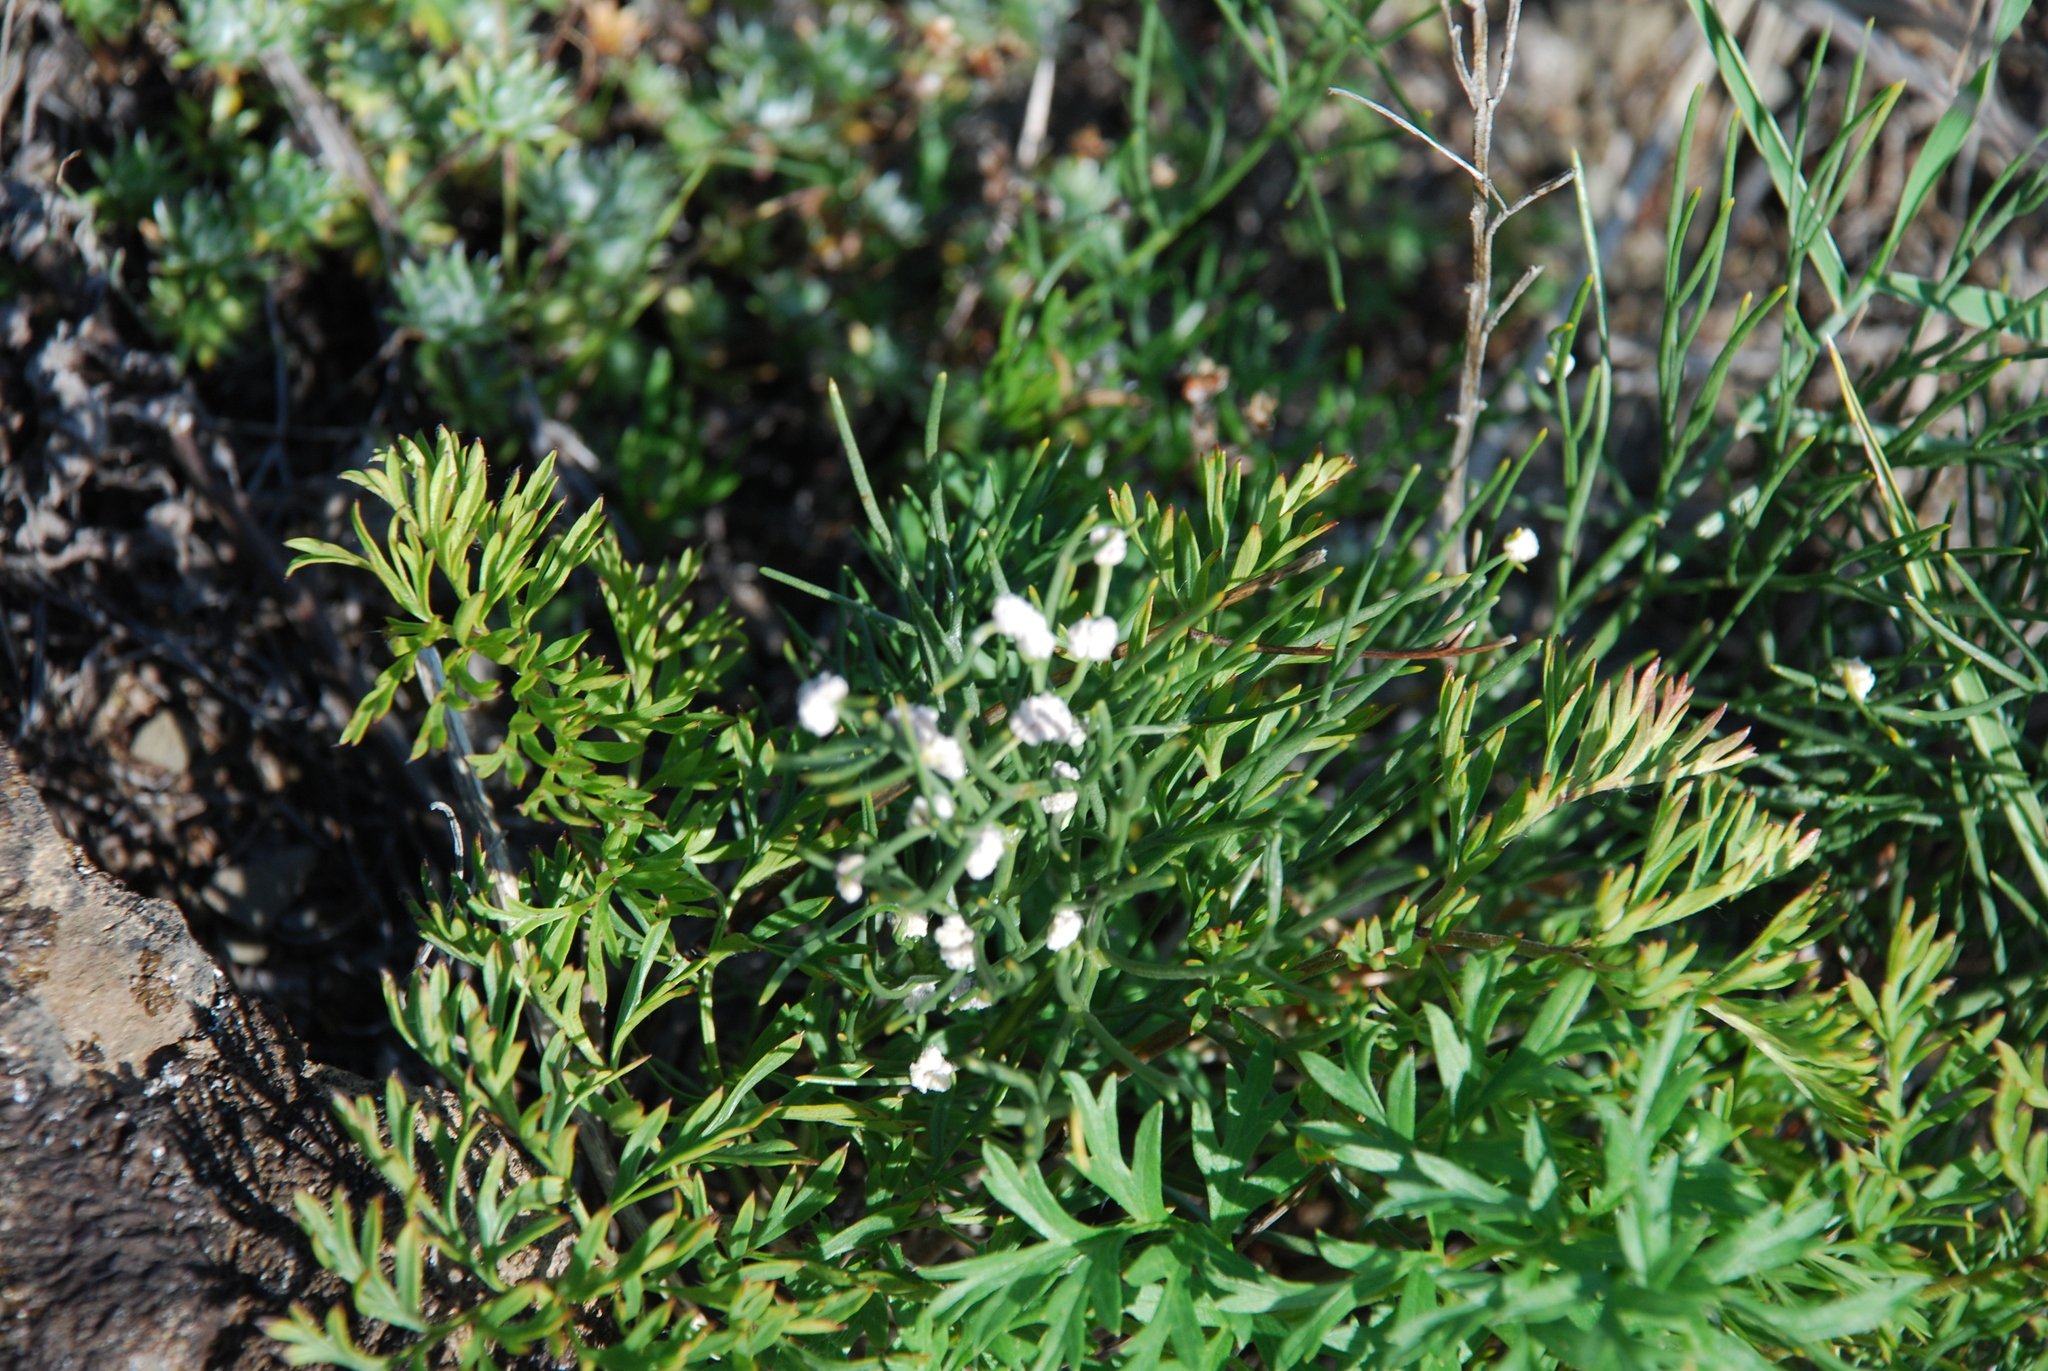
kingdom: Plantae
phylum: Tracheophyta
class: Magnoliopsida
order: Ranunculales
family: Ranunculaceae
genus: Pulsatilla
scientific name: Pulsatilla turczaninovii
